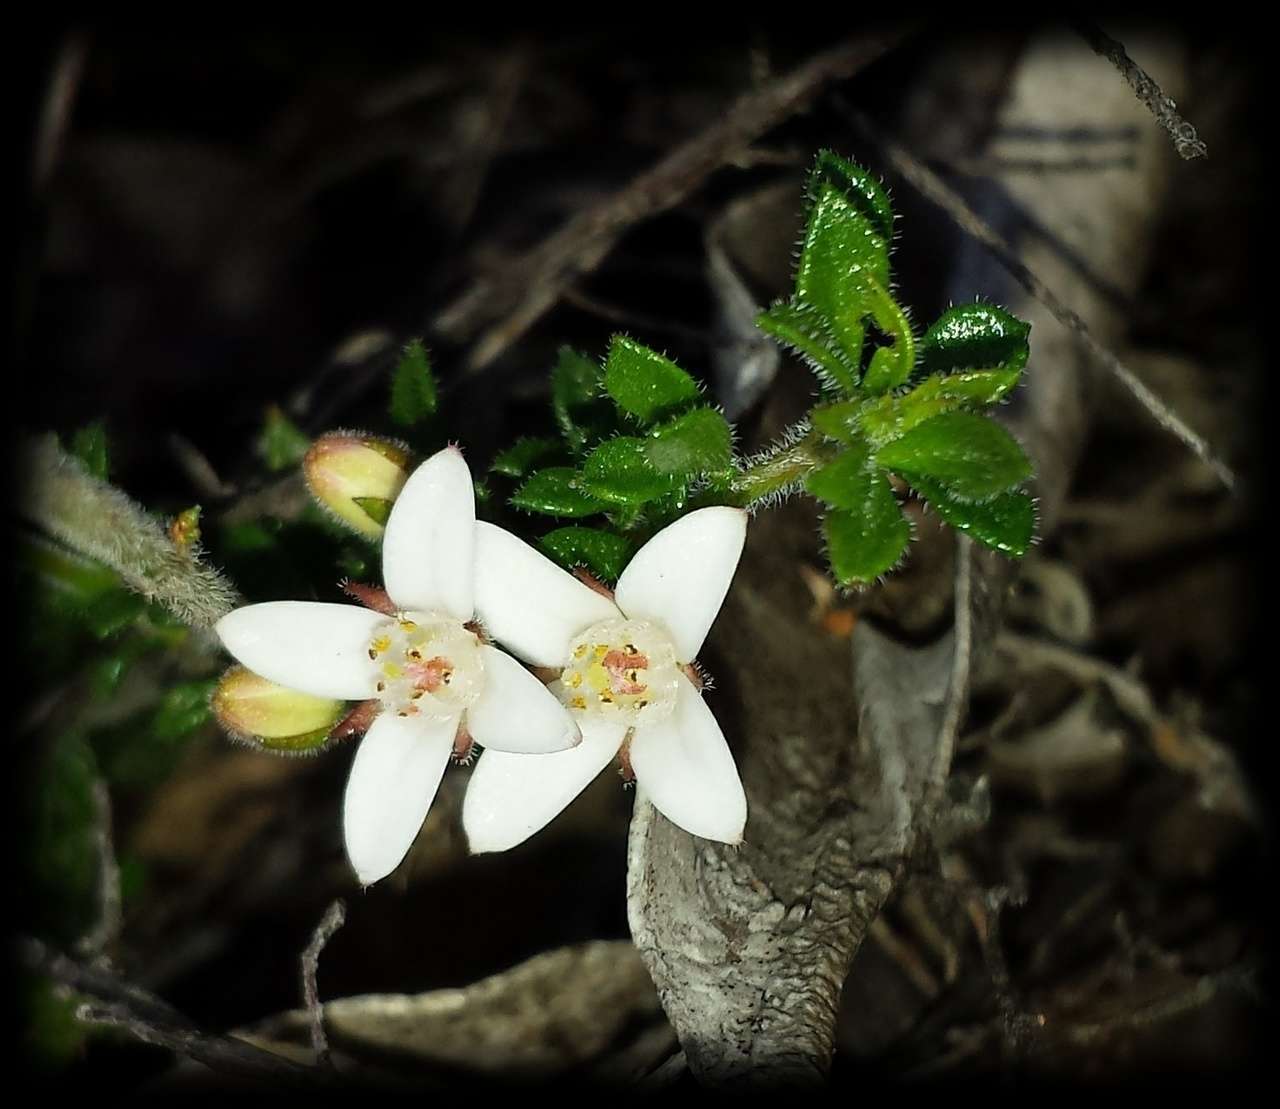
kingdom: Plantae
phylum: Tracheophyta
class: Magnoliopsida
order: Sapindales
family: Rutaceae
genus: Cyanothamnus
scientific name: Cyanothamnus nanus
